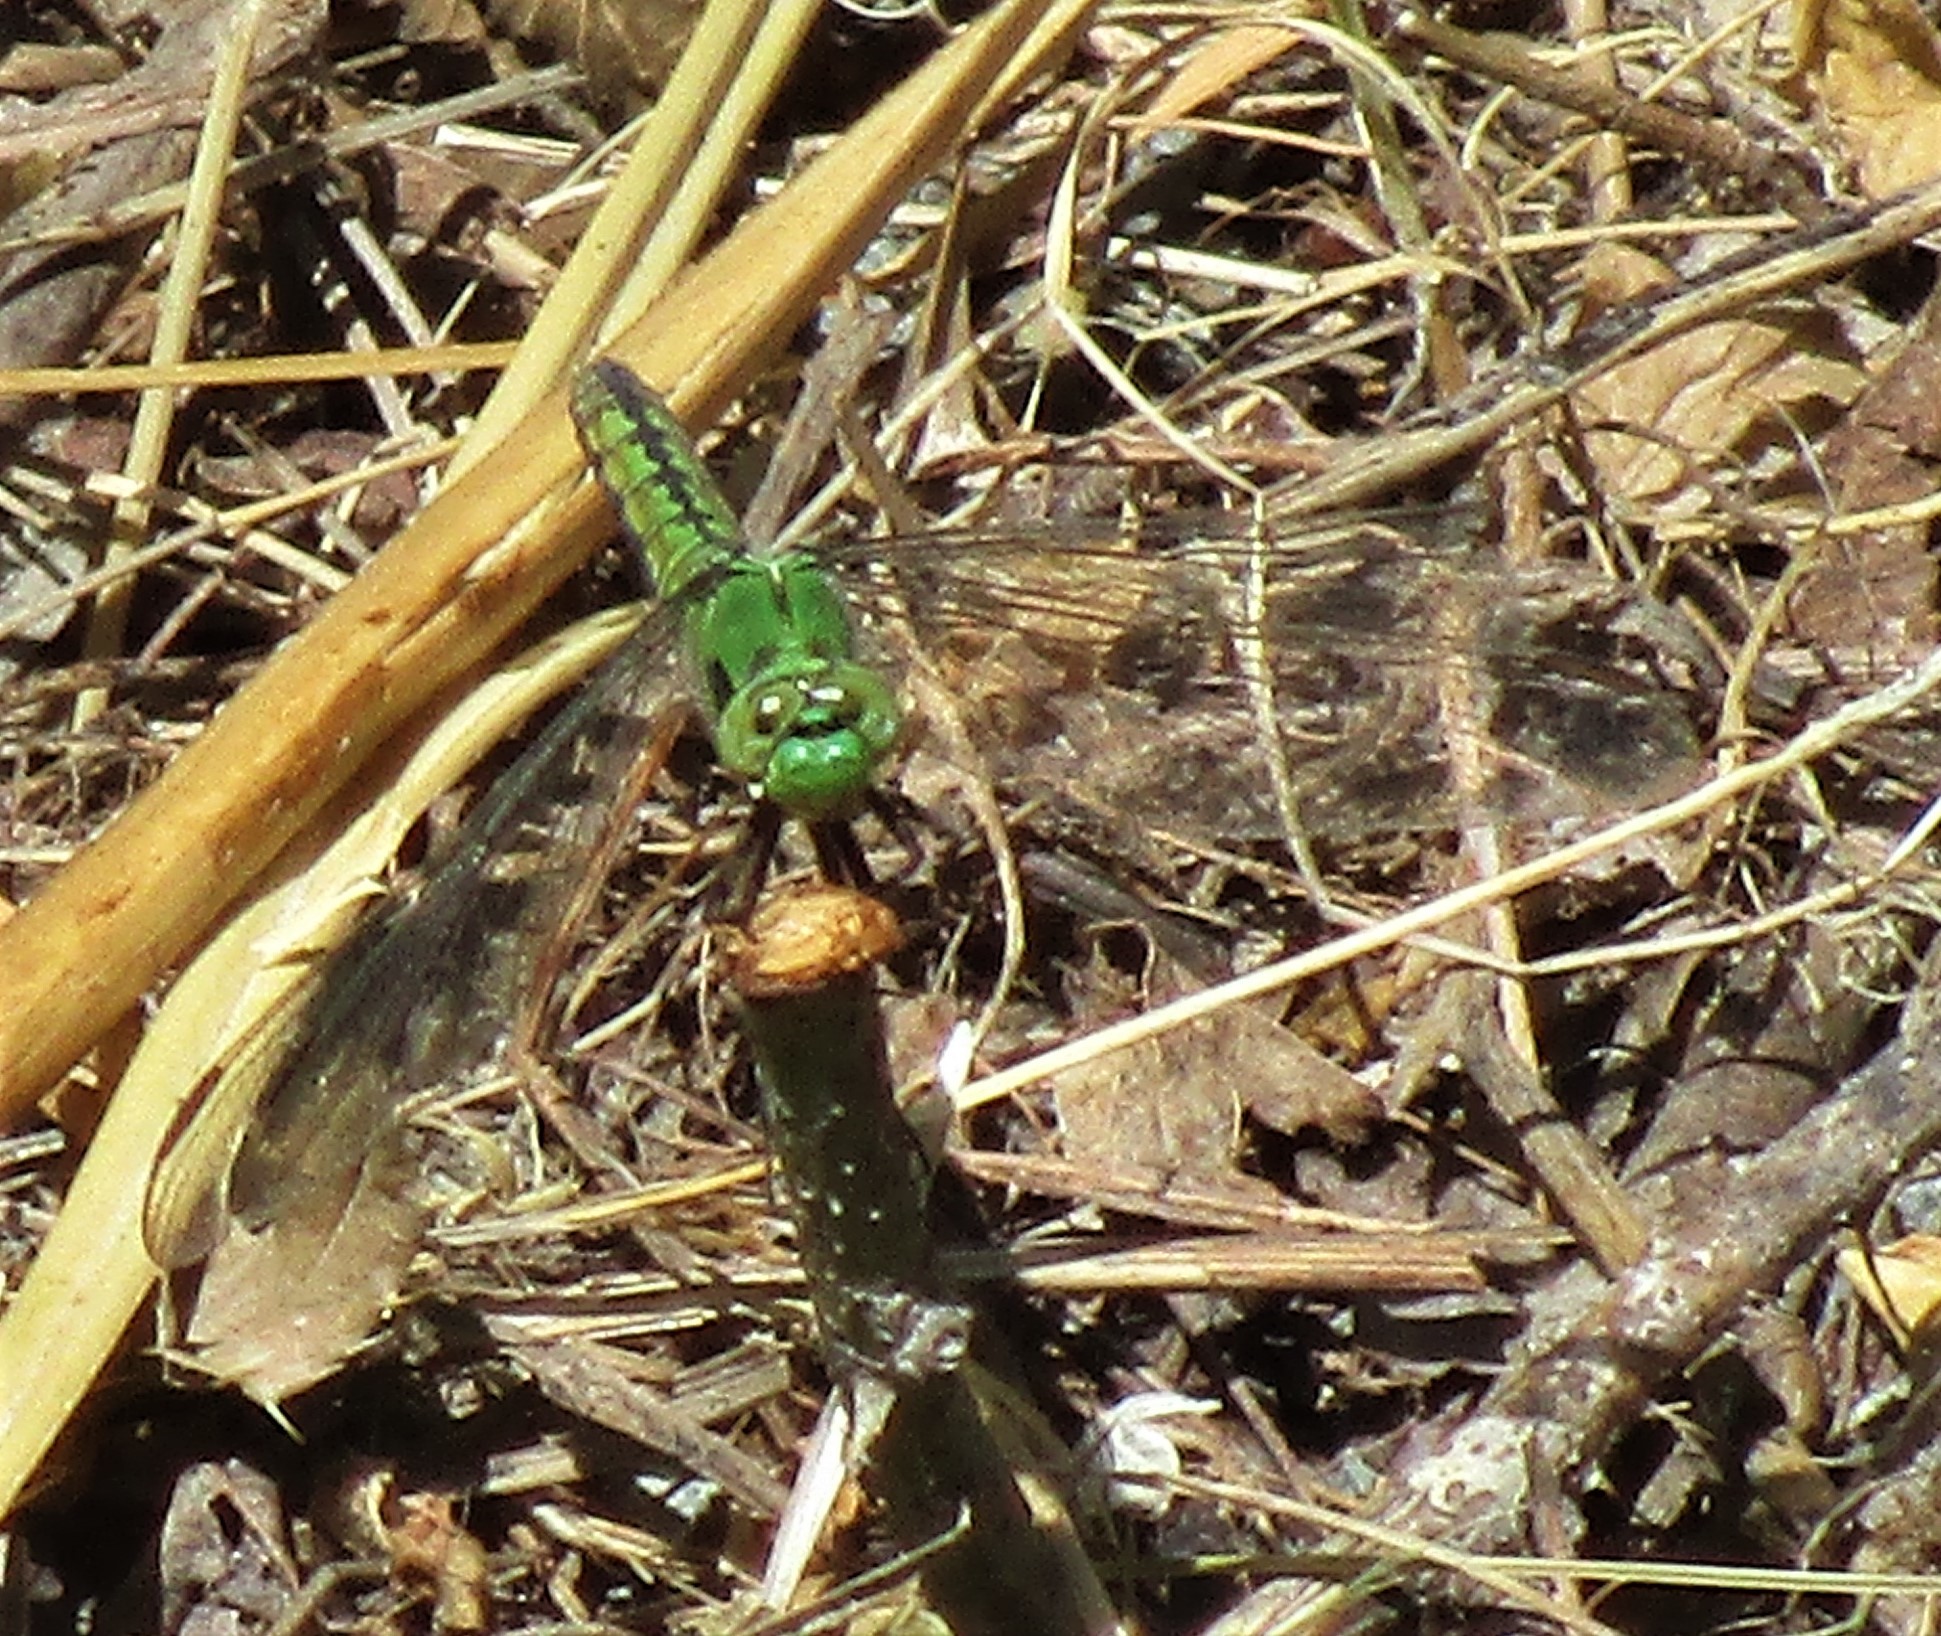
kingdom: Animalia
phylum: Arthropoda
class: Insecta
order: Odonata
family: Libellulidae
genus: Erythemis
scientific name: Erythemis collocata
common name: Western pondhawk
